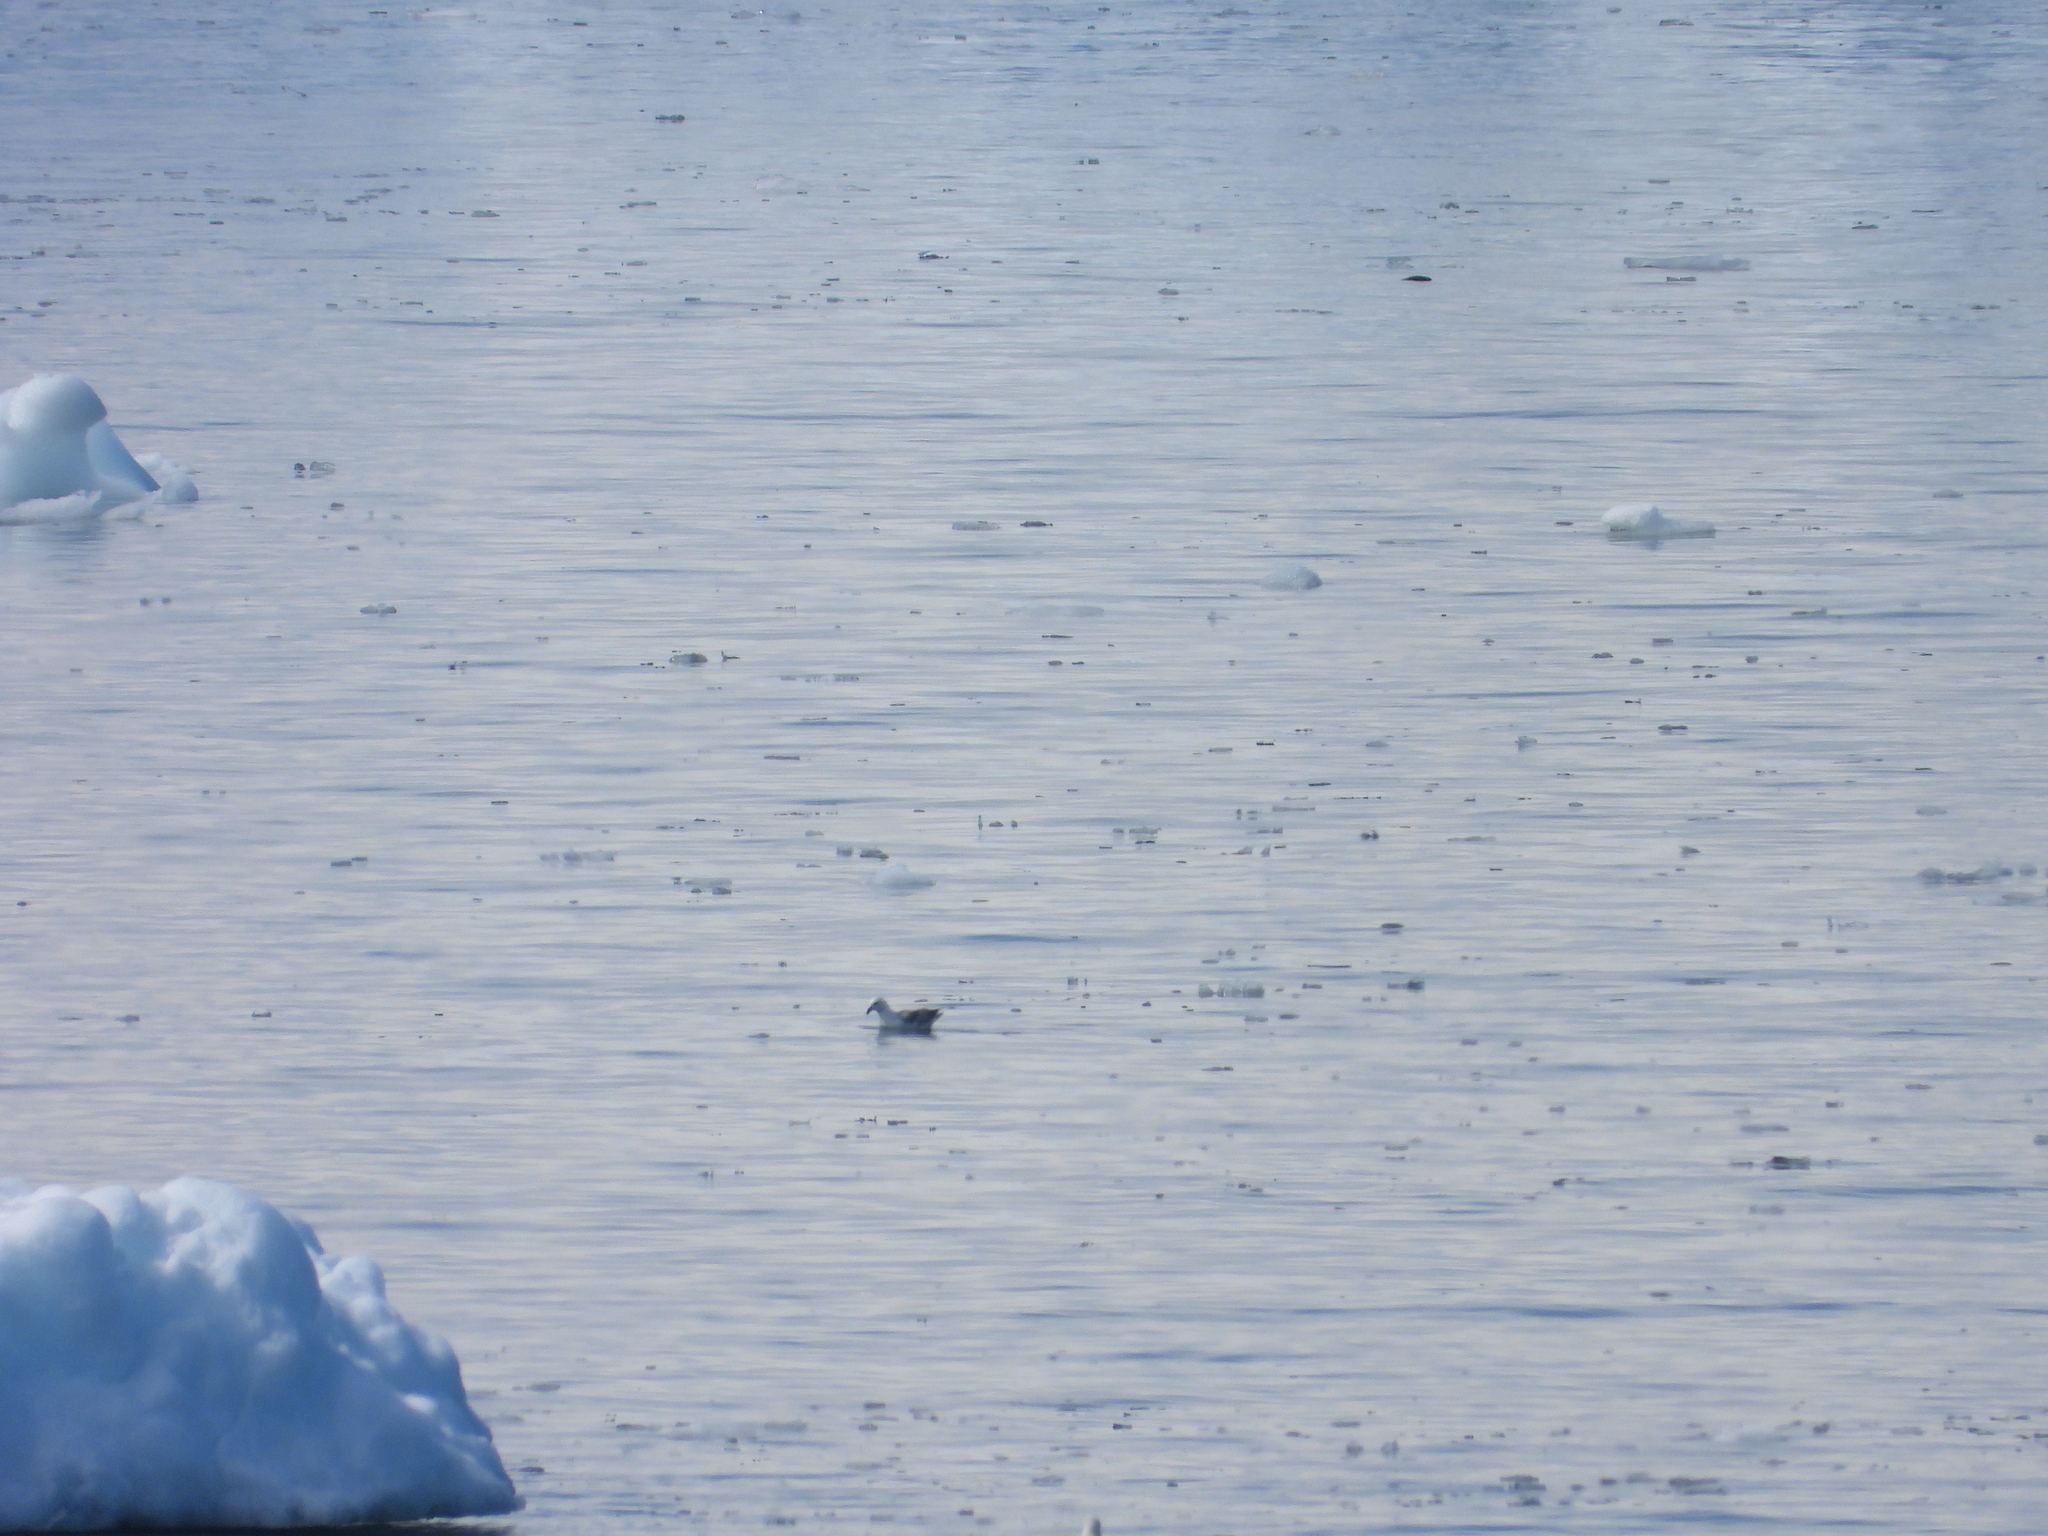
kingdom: Animalia
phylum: Chordata
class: Aves
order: Procellariiformes
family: Procellariidae
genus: Fulmarus
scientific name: Fulmarus glacialis
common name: Northern fulmar
